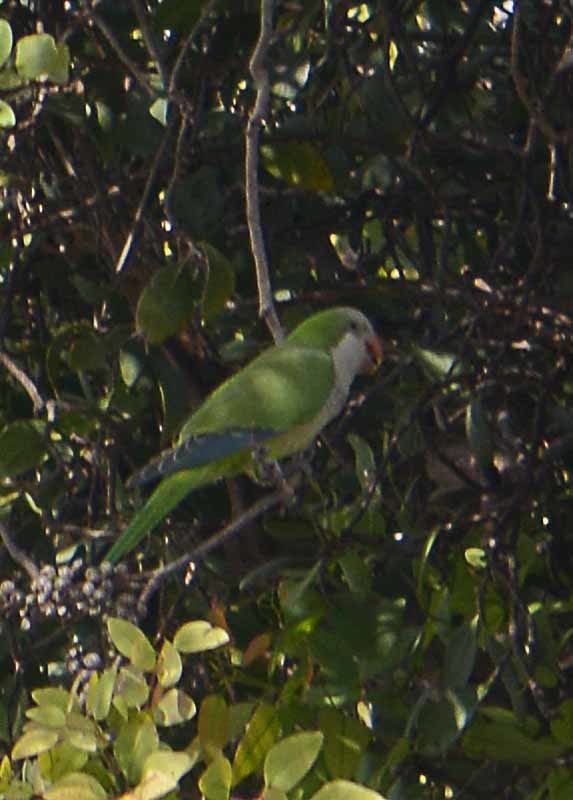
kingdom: Animalia
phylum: Chordata
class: Aves
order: Psittaciformes
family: Psittacidae
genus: Myiopsitta
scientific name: Myiopsitta monachus
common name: Monk parakeet
